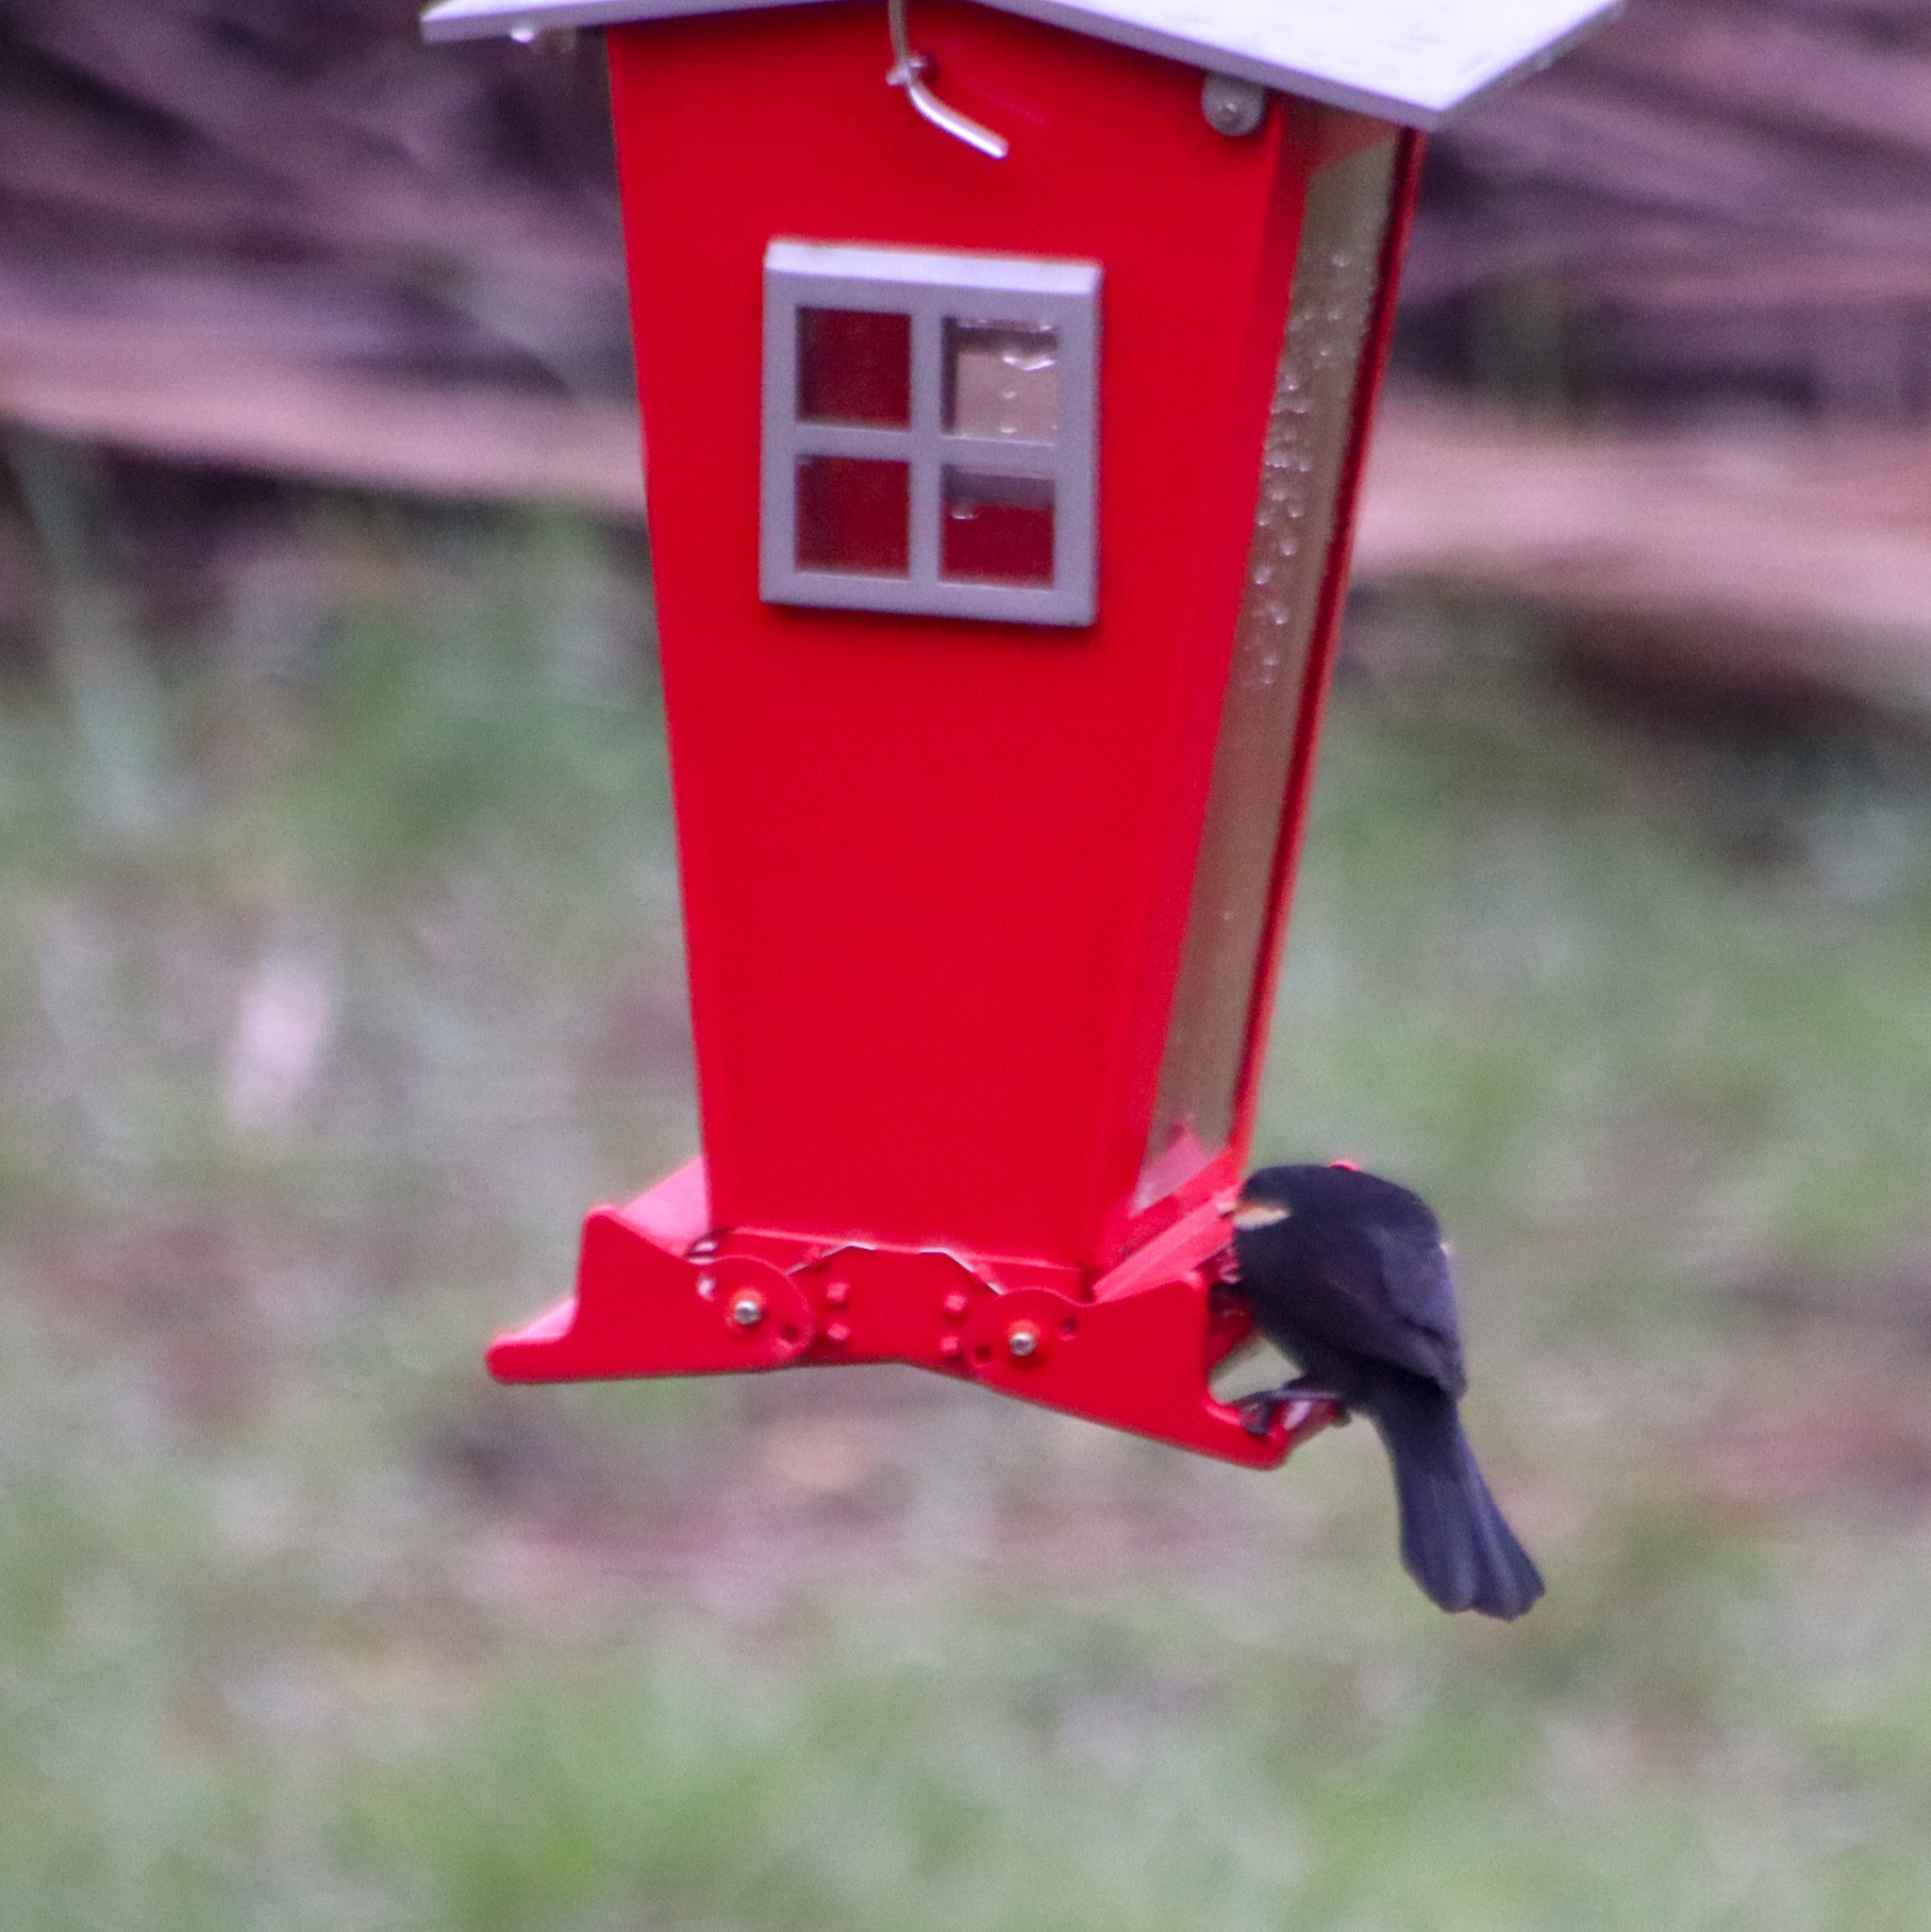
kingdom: Animalia
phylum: Chordata
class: Aves
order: Passeriformes
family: Icteridae
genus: Agelaius
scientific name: Agelaius phoeniceus
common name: Red-winged blackbird
